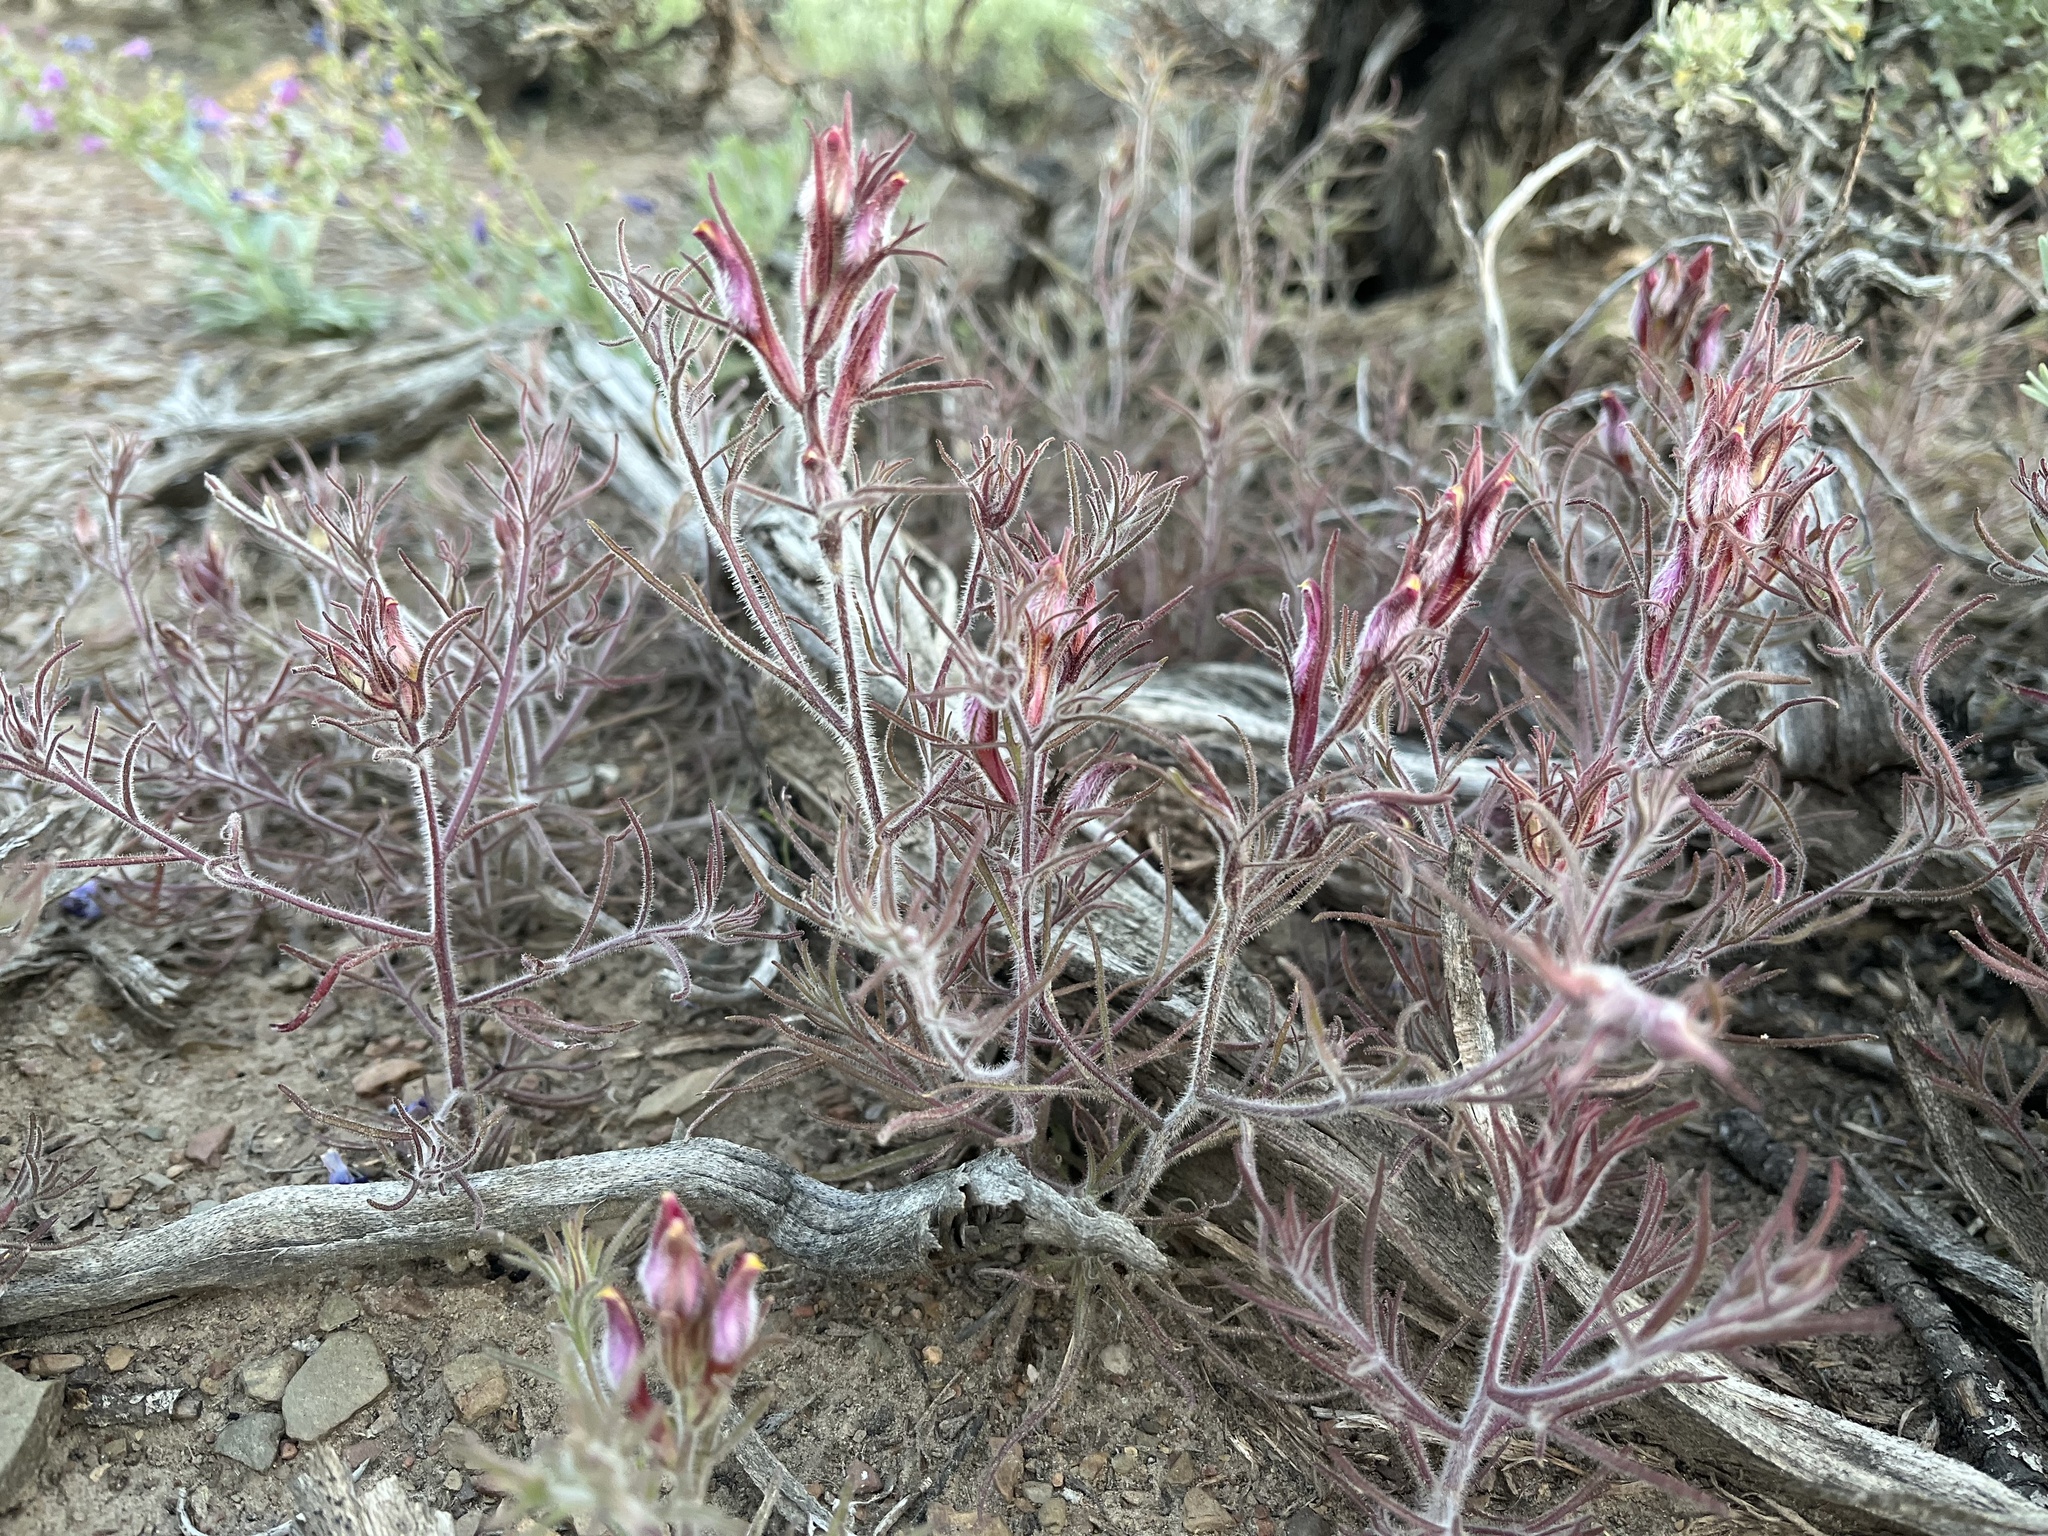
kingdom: Plantae
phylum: Tracheophyta
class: Magnoliopsida
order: Lamiales
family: Orobanchaceae
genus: Cordylanthus
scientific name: Cordylanthus kingii
